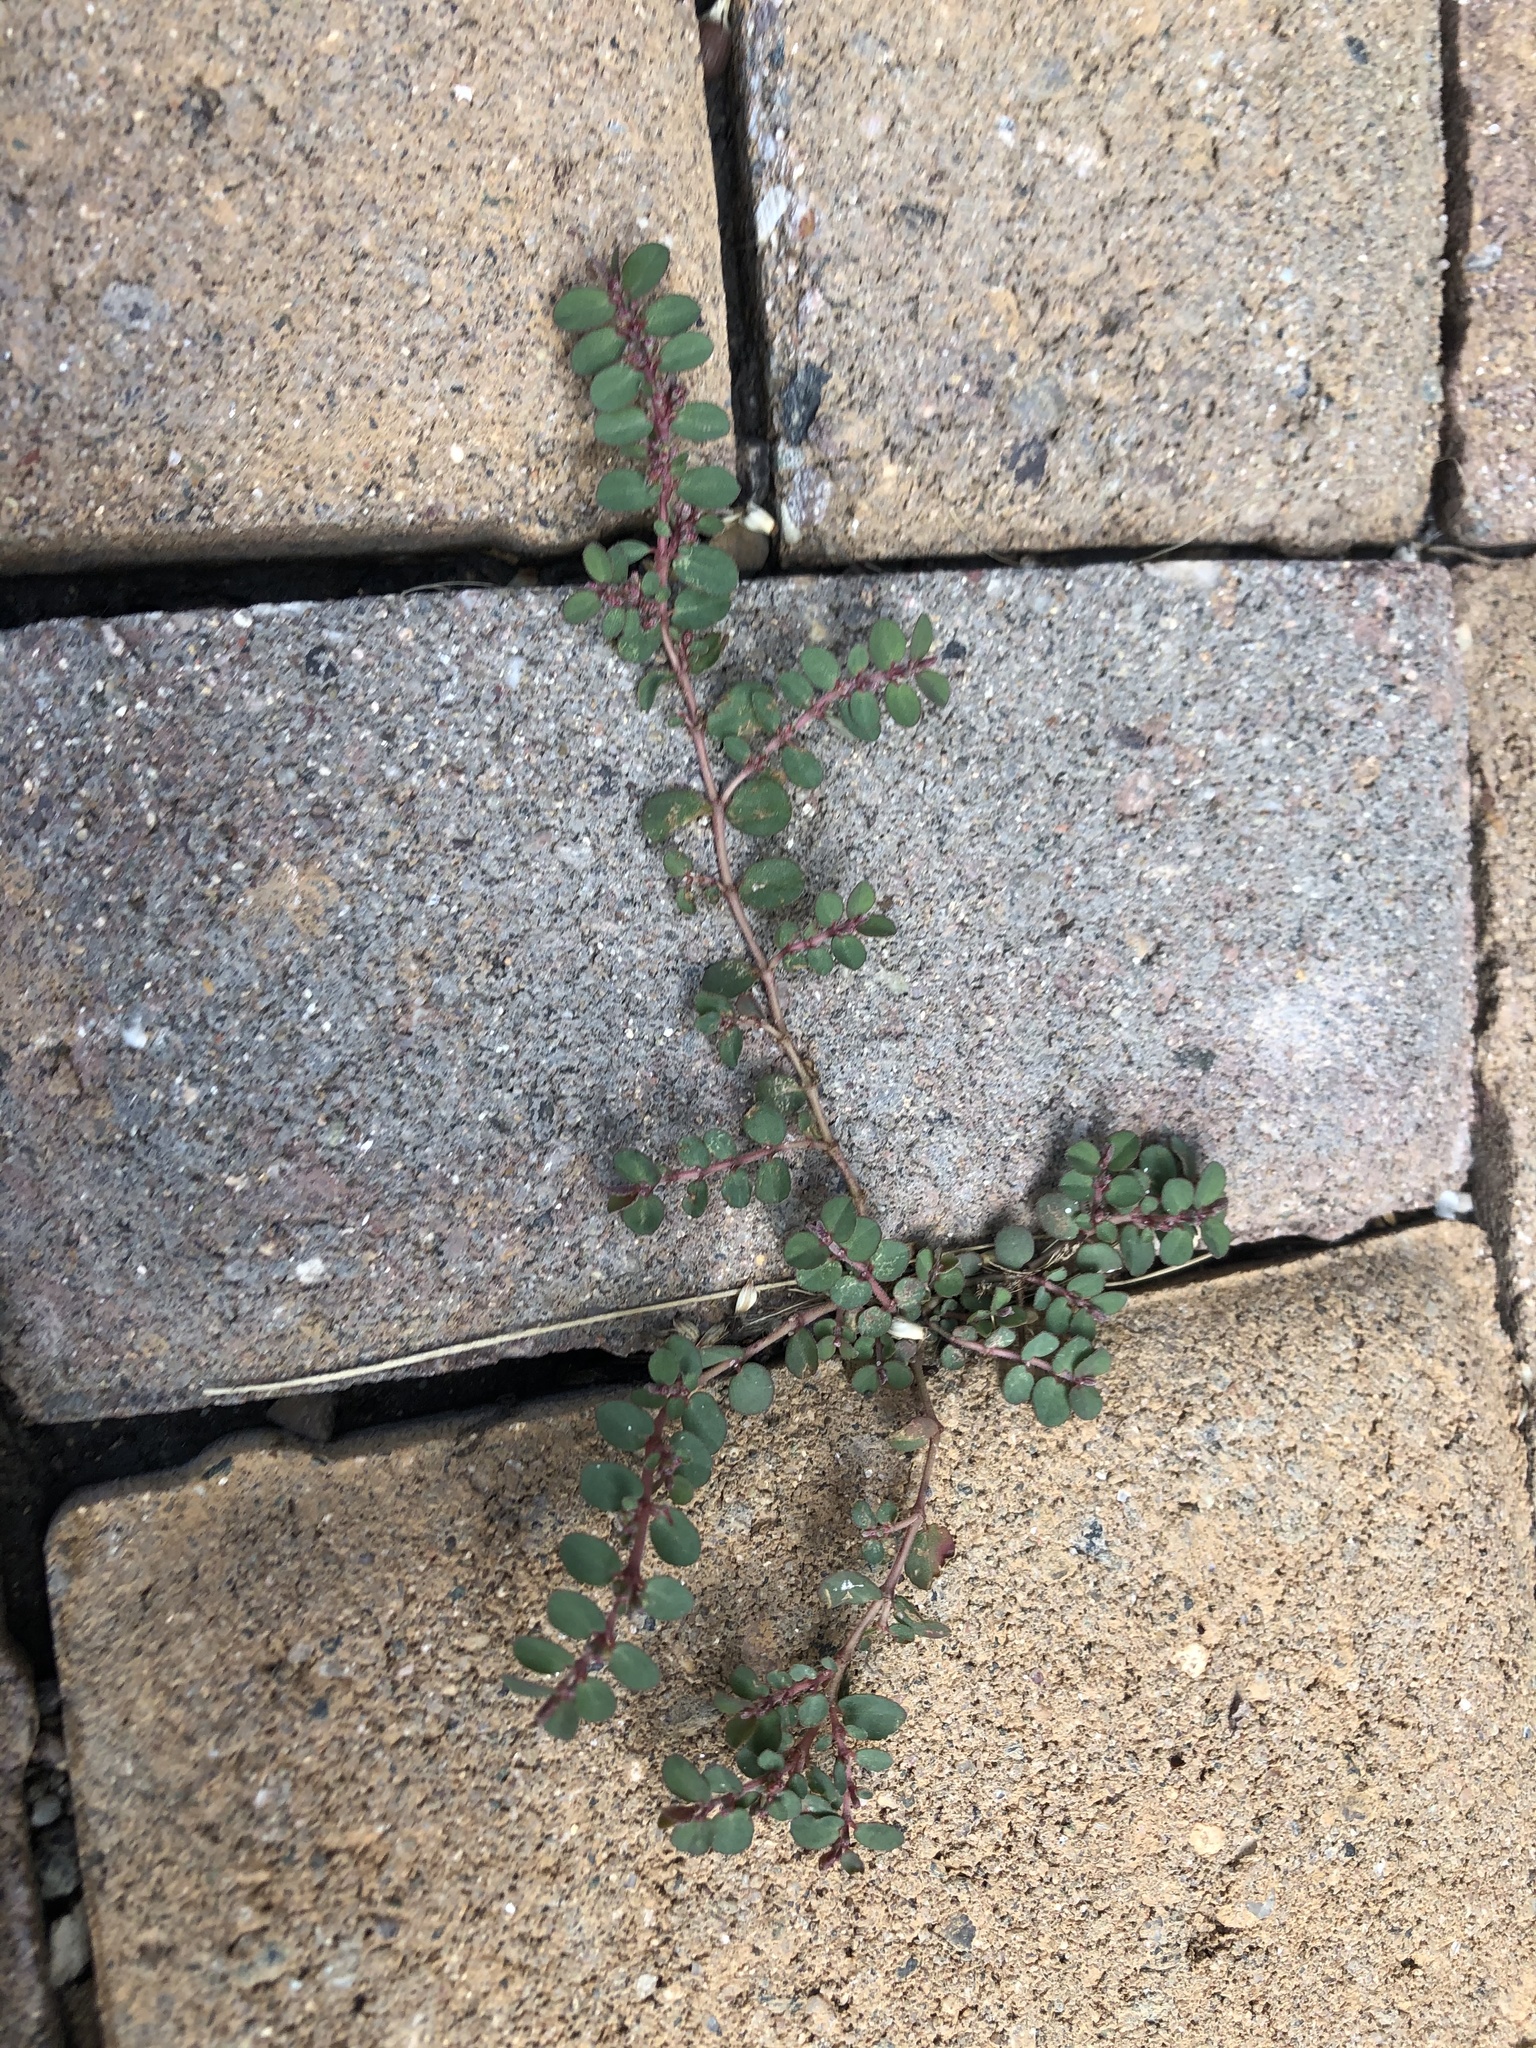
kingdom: Plantae
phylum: Tracheophyta
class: Magnoliopsida
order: Malpighiales
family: Euphorbiaceae
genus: Euphorbia
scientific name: Euphorbia prostrata
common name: Prostrate sandmat
